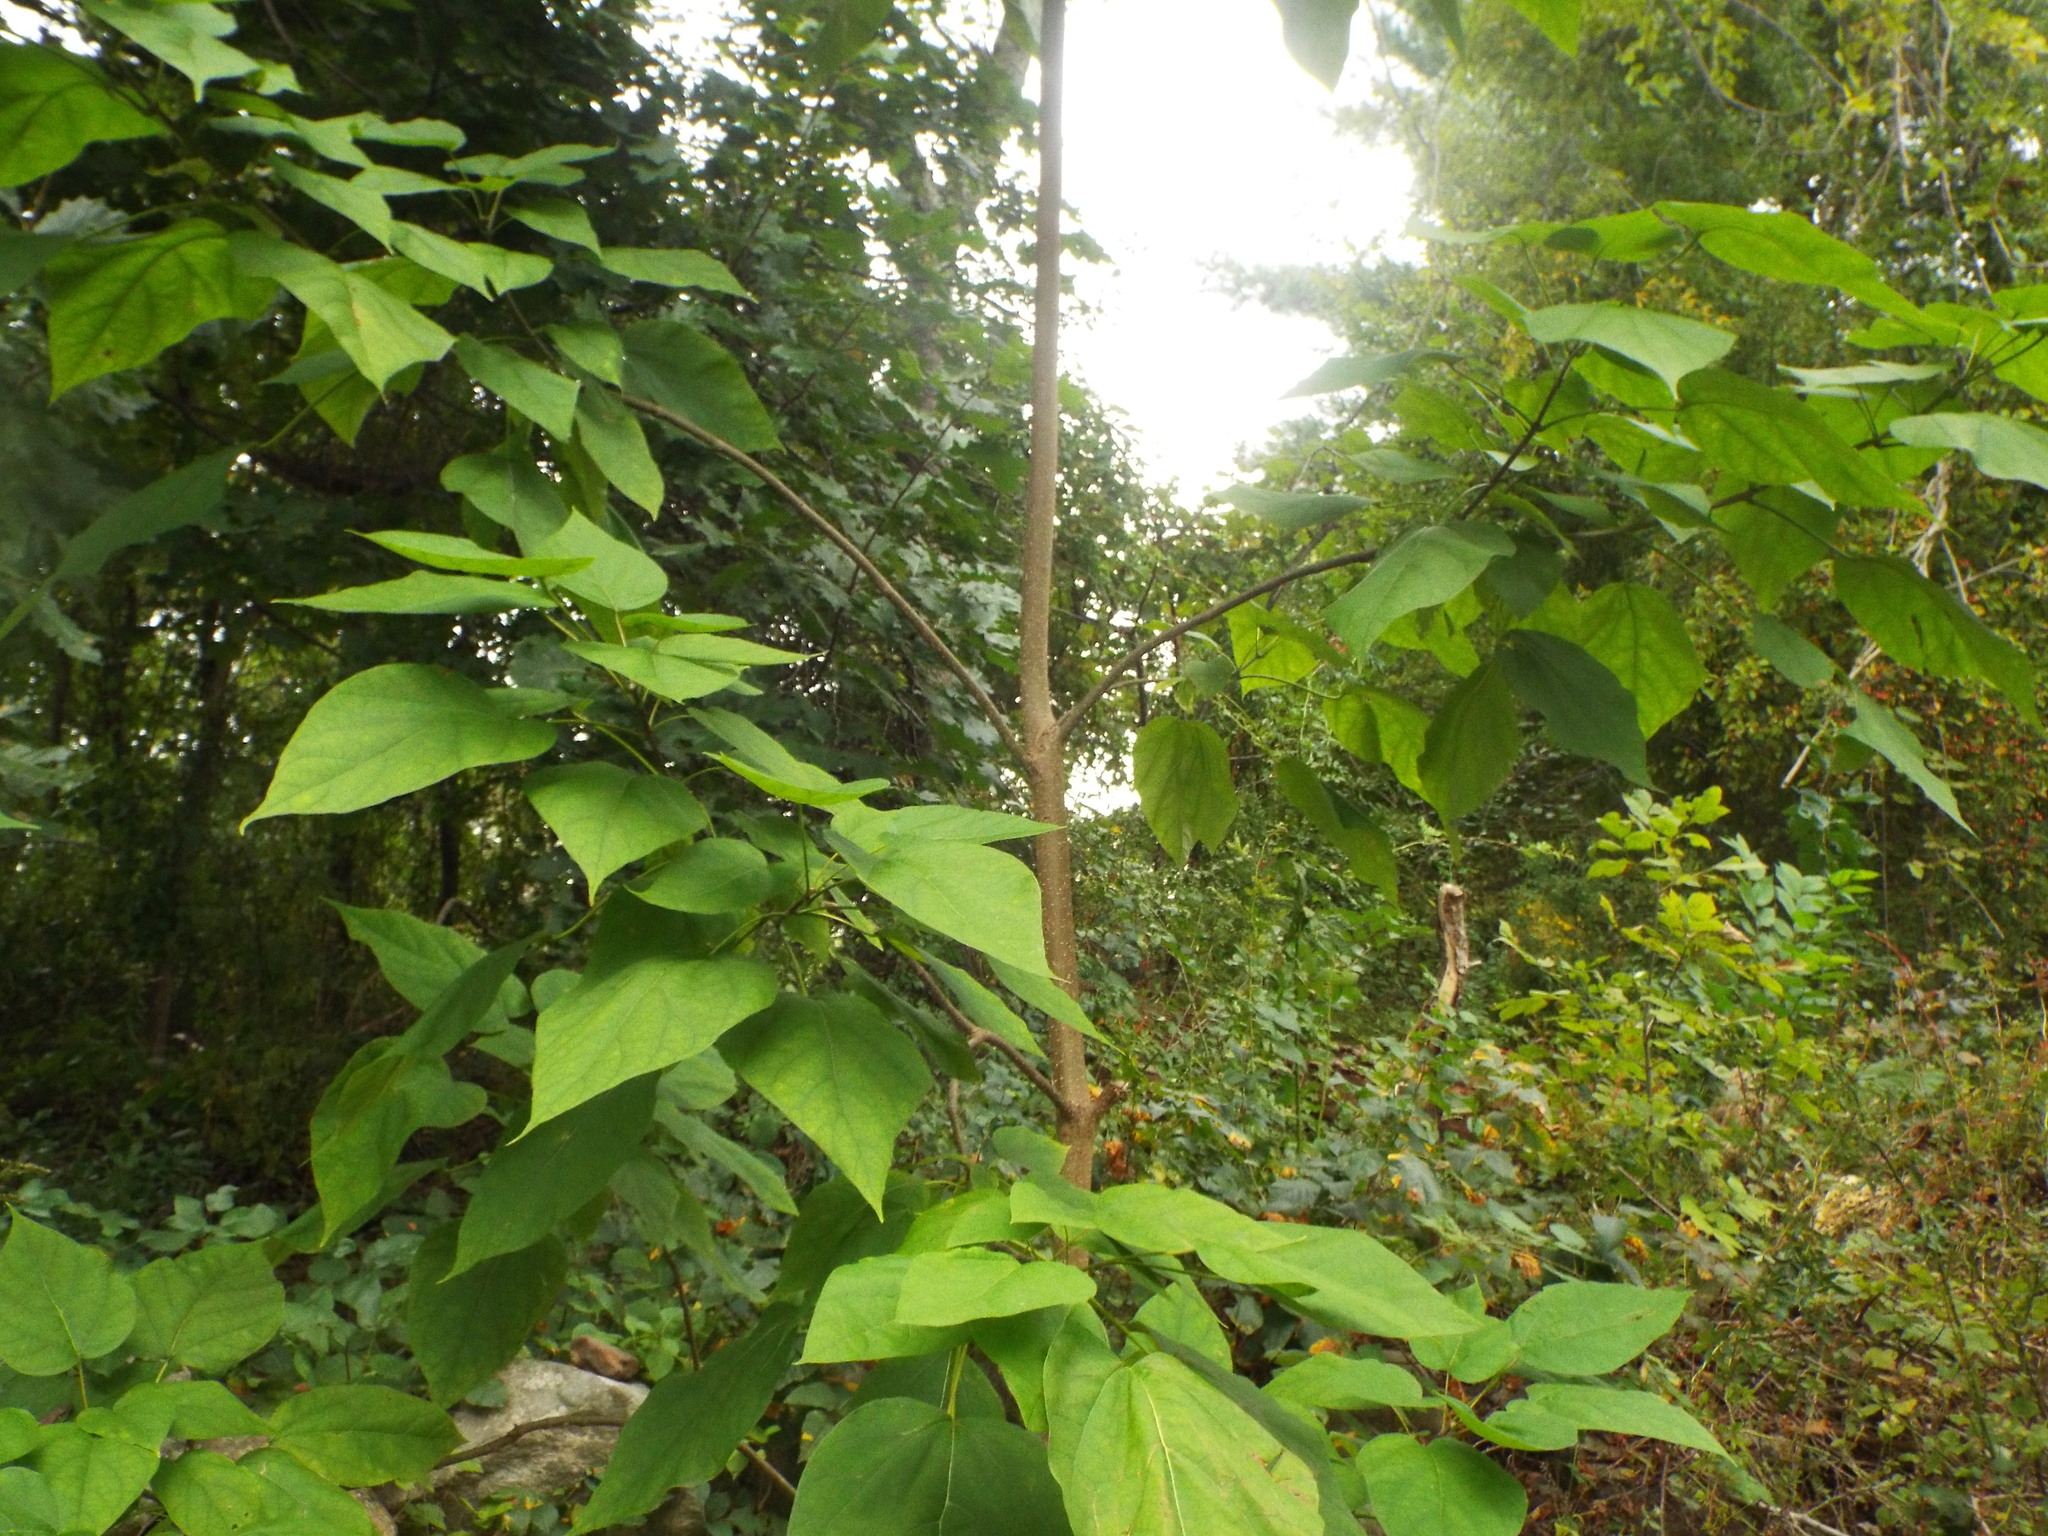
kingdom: Plantae
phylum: Tracheophyta
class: Magnoliopsida
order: Lamiales
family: Bignoniaceae
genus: Catalpa
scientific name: Catalpa speciosa
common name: Northern catalpa
